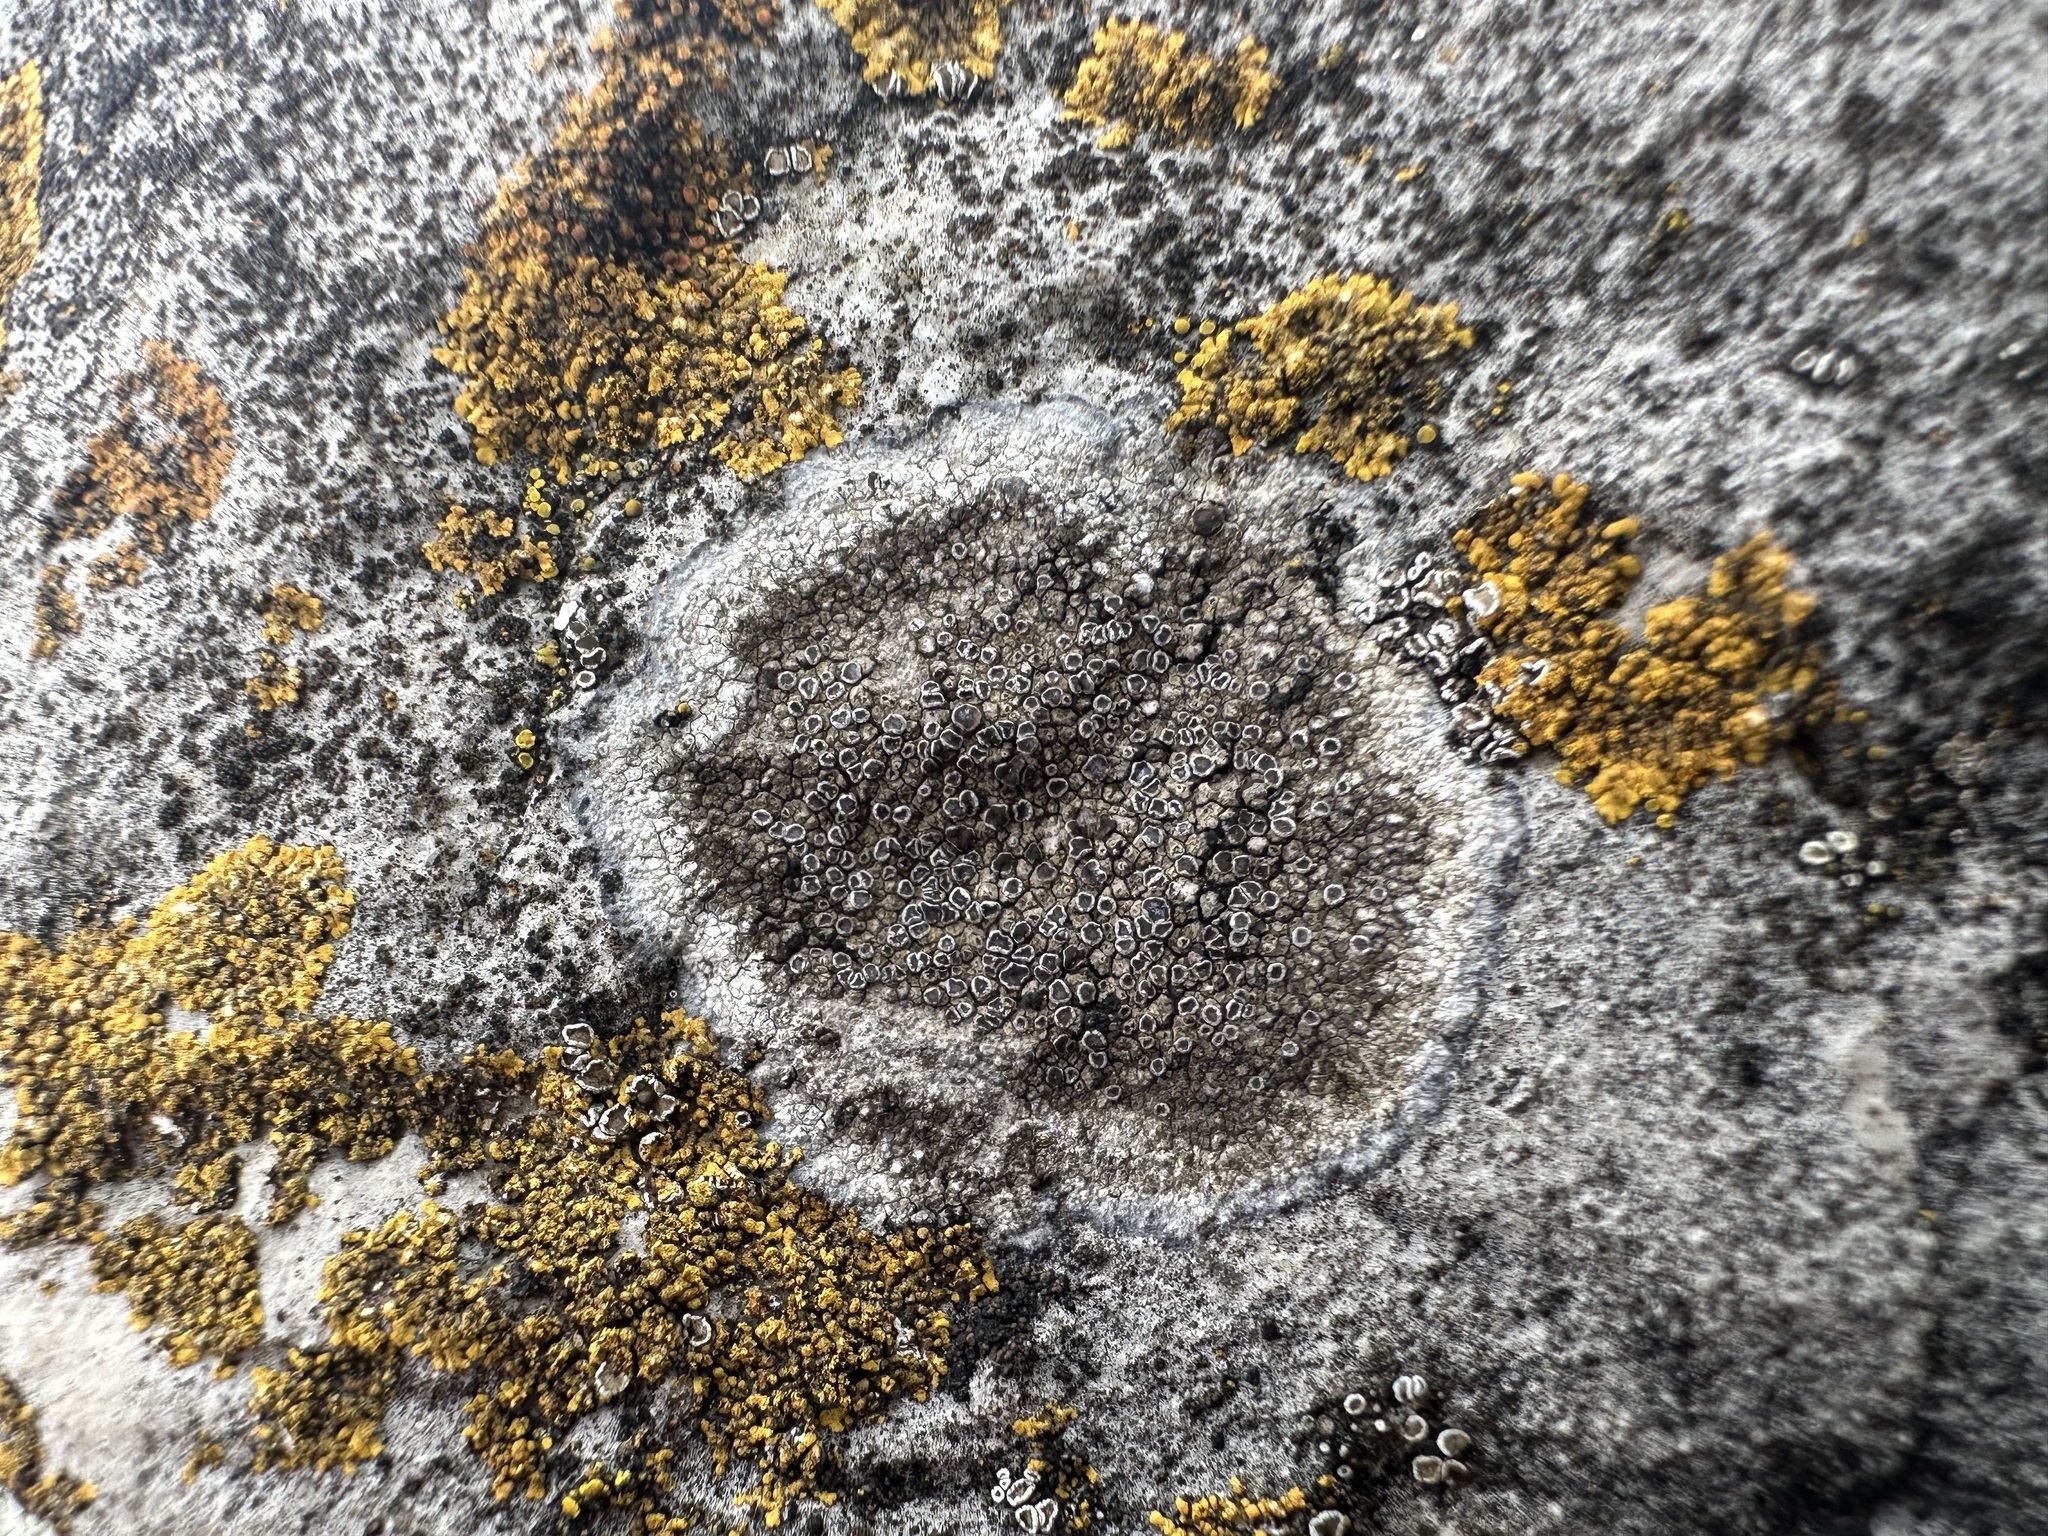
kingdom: Fungi
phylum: Ascomycota
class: Lecanoromycetes
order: Teloschistales
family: Teloschistaceae
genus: Pyrenodesmia
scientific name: Pyrenodesmia variabilis
